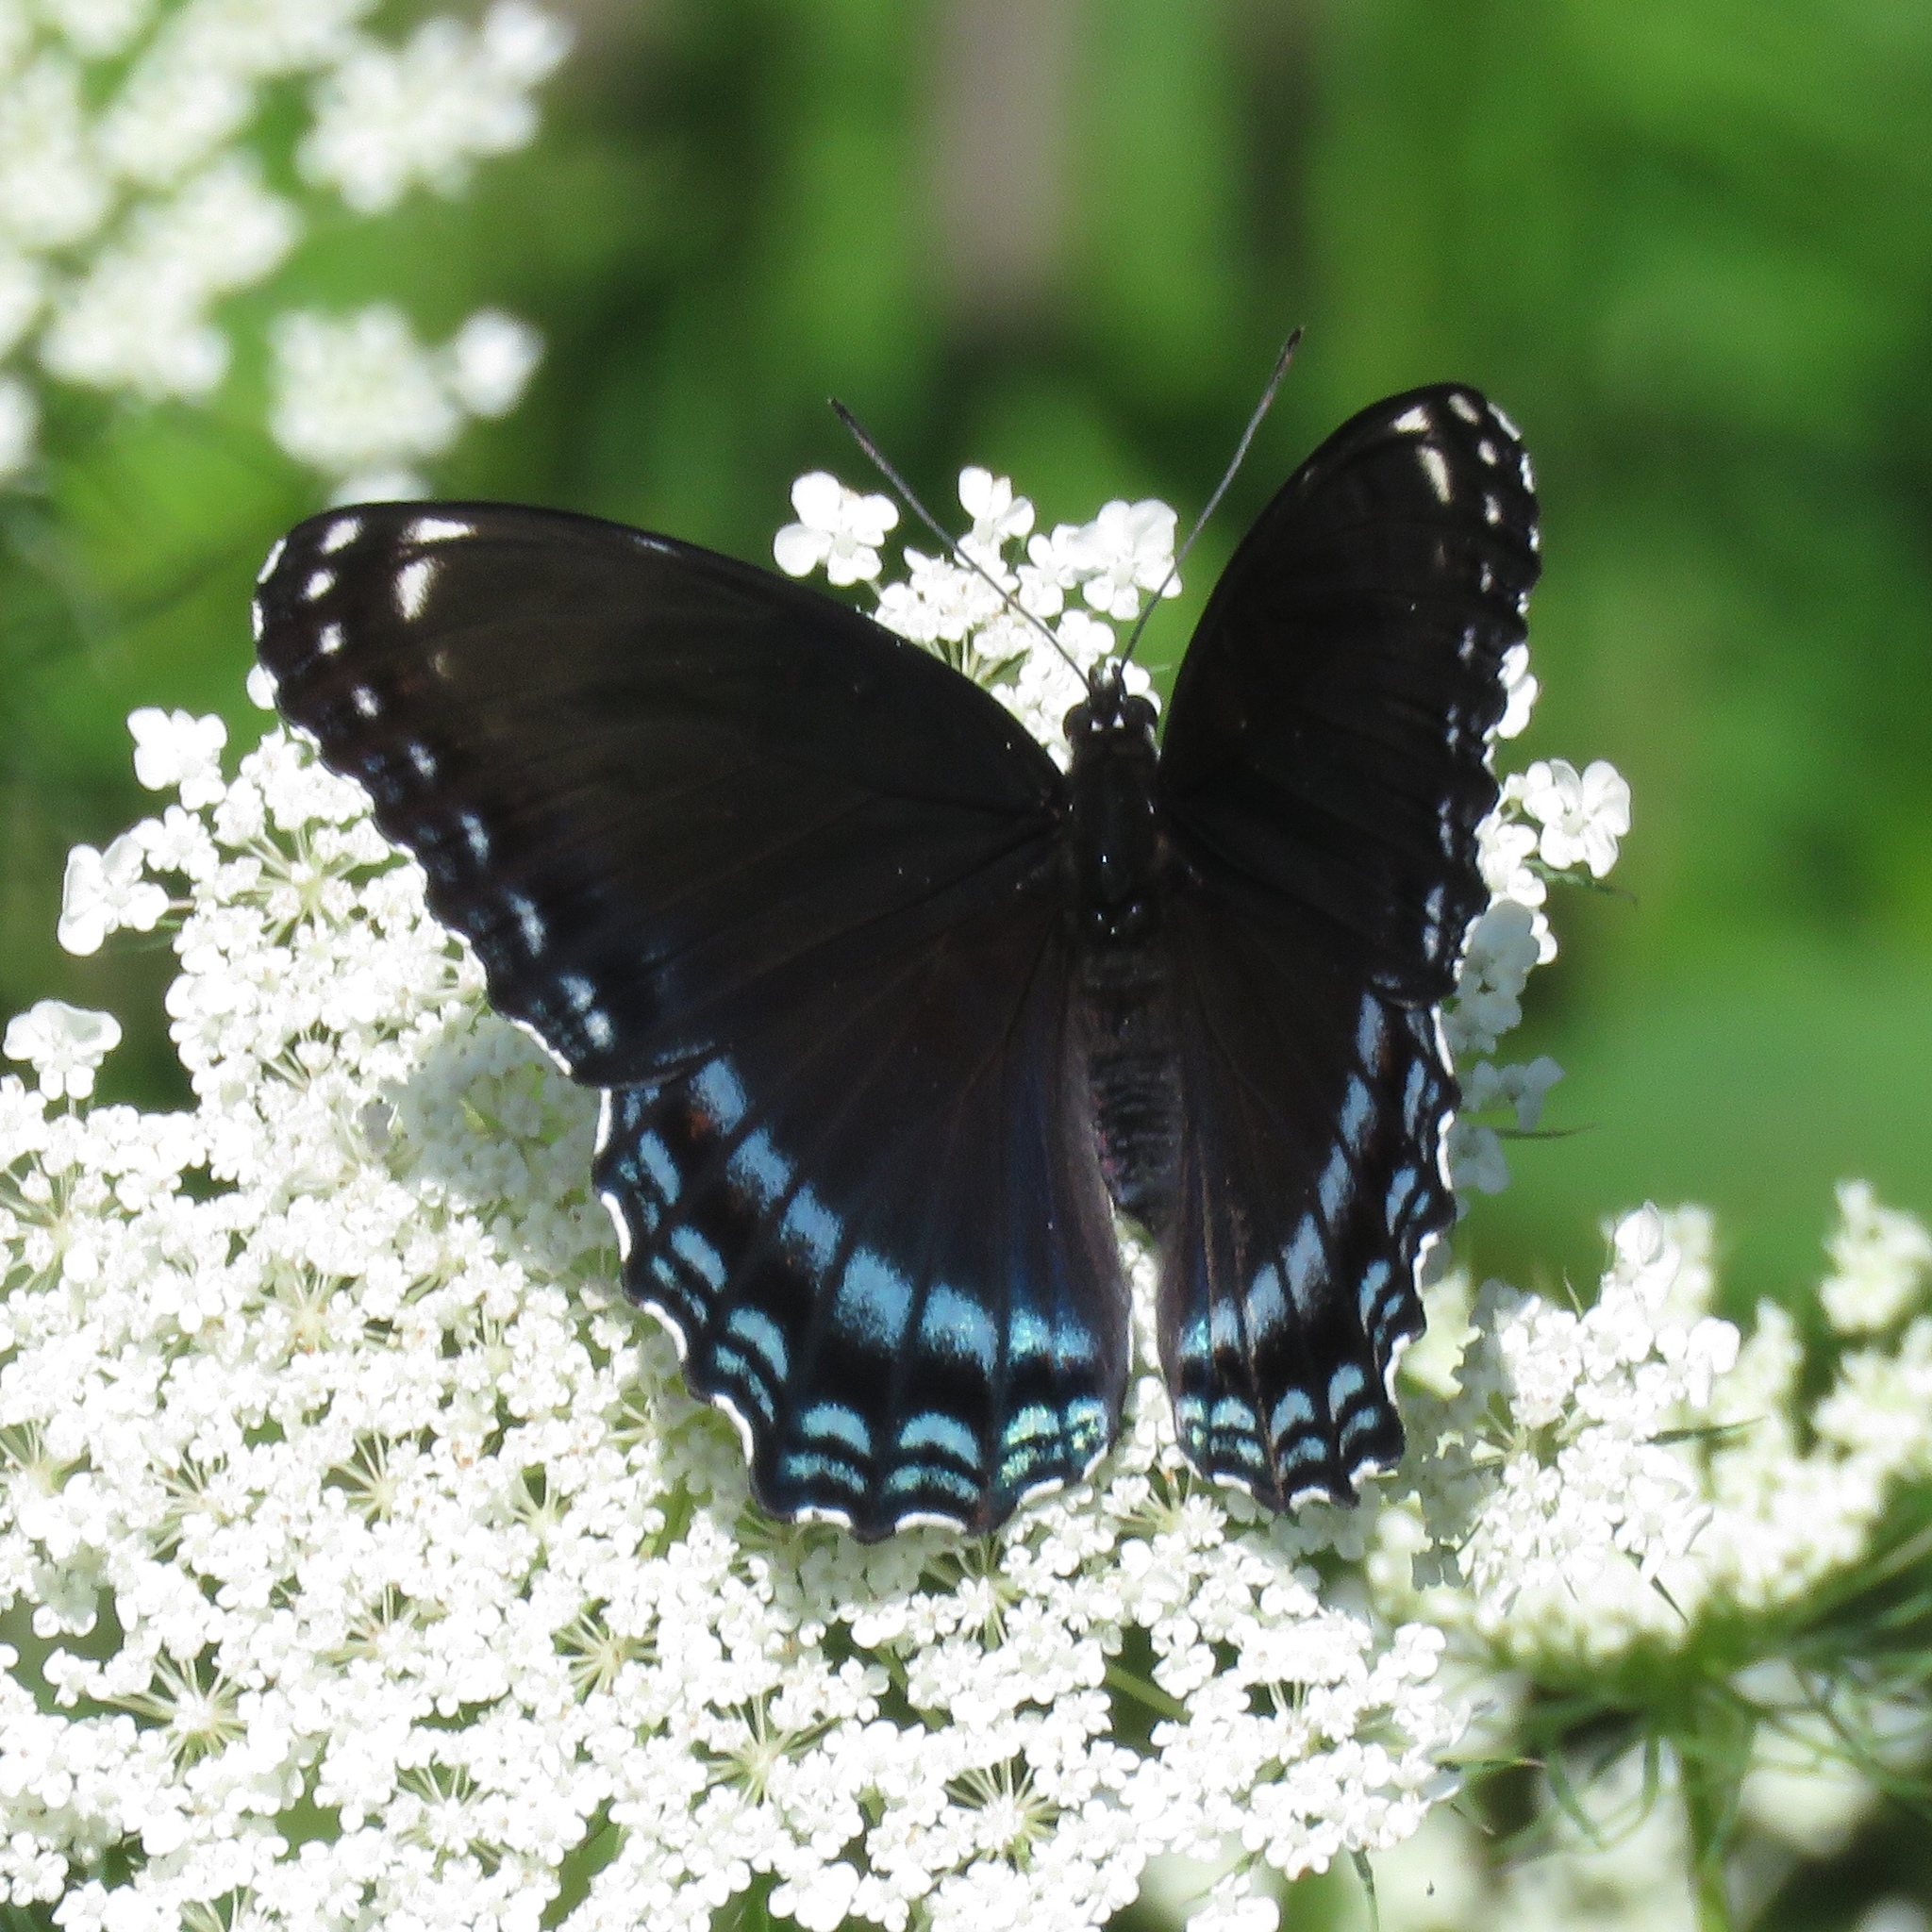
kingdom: Animalia
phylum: Arthropoda
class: Insecta
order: Lepidoptera
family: Nymphalidae
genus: Limenitis
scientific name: Limenitis astyanax
